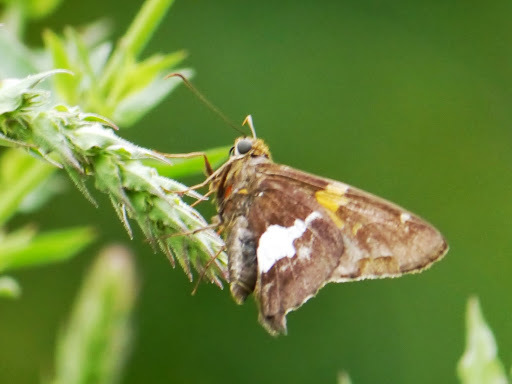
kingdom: Animalia
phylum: Arthropoda
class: Insecta
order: Lepidoptera
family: Hesperiidae
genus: Epargyreus
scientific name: Epargyreus clarus
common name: Silver-spotted skipper
